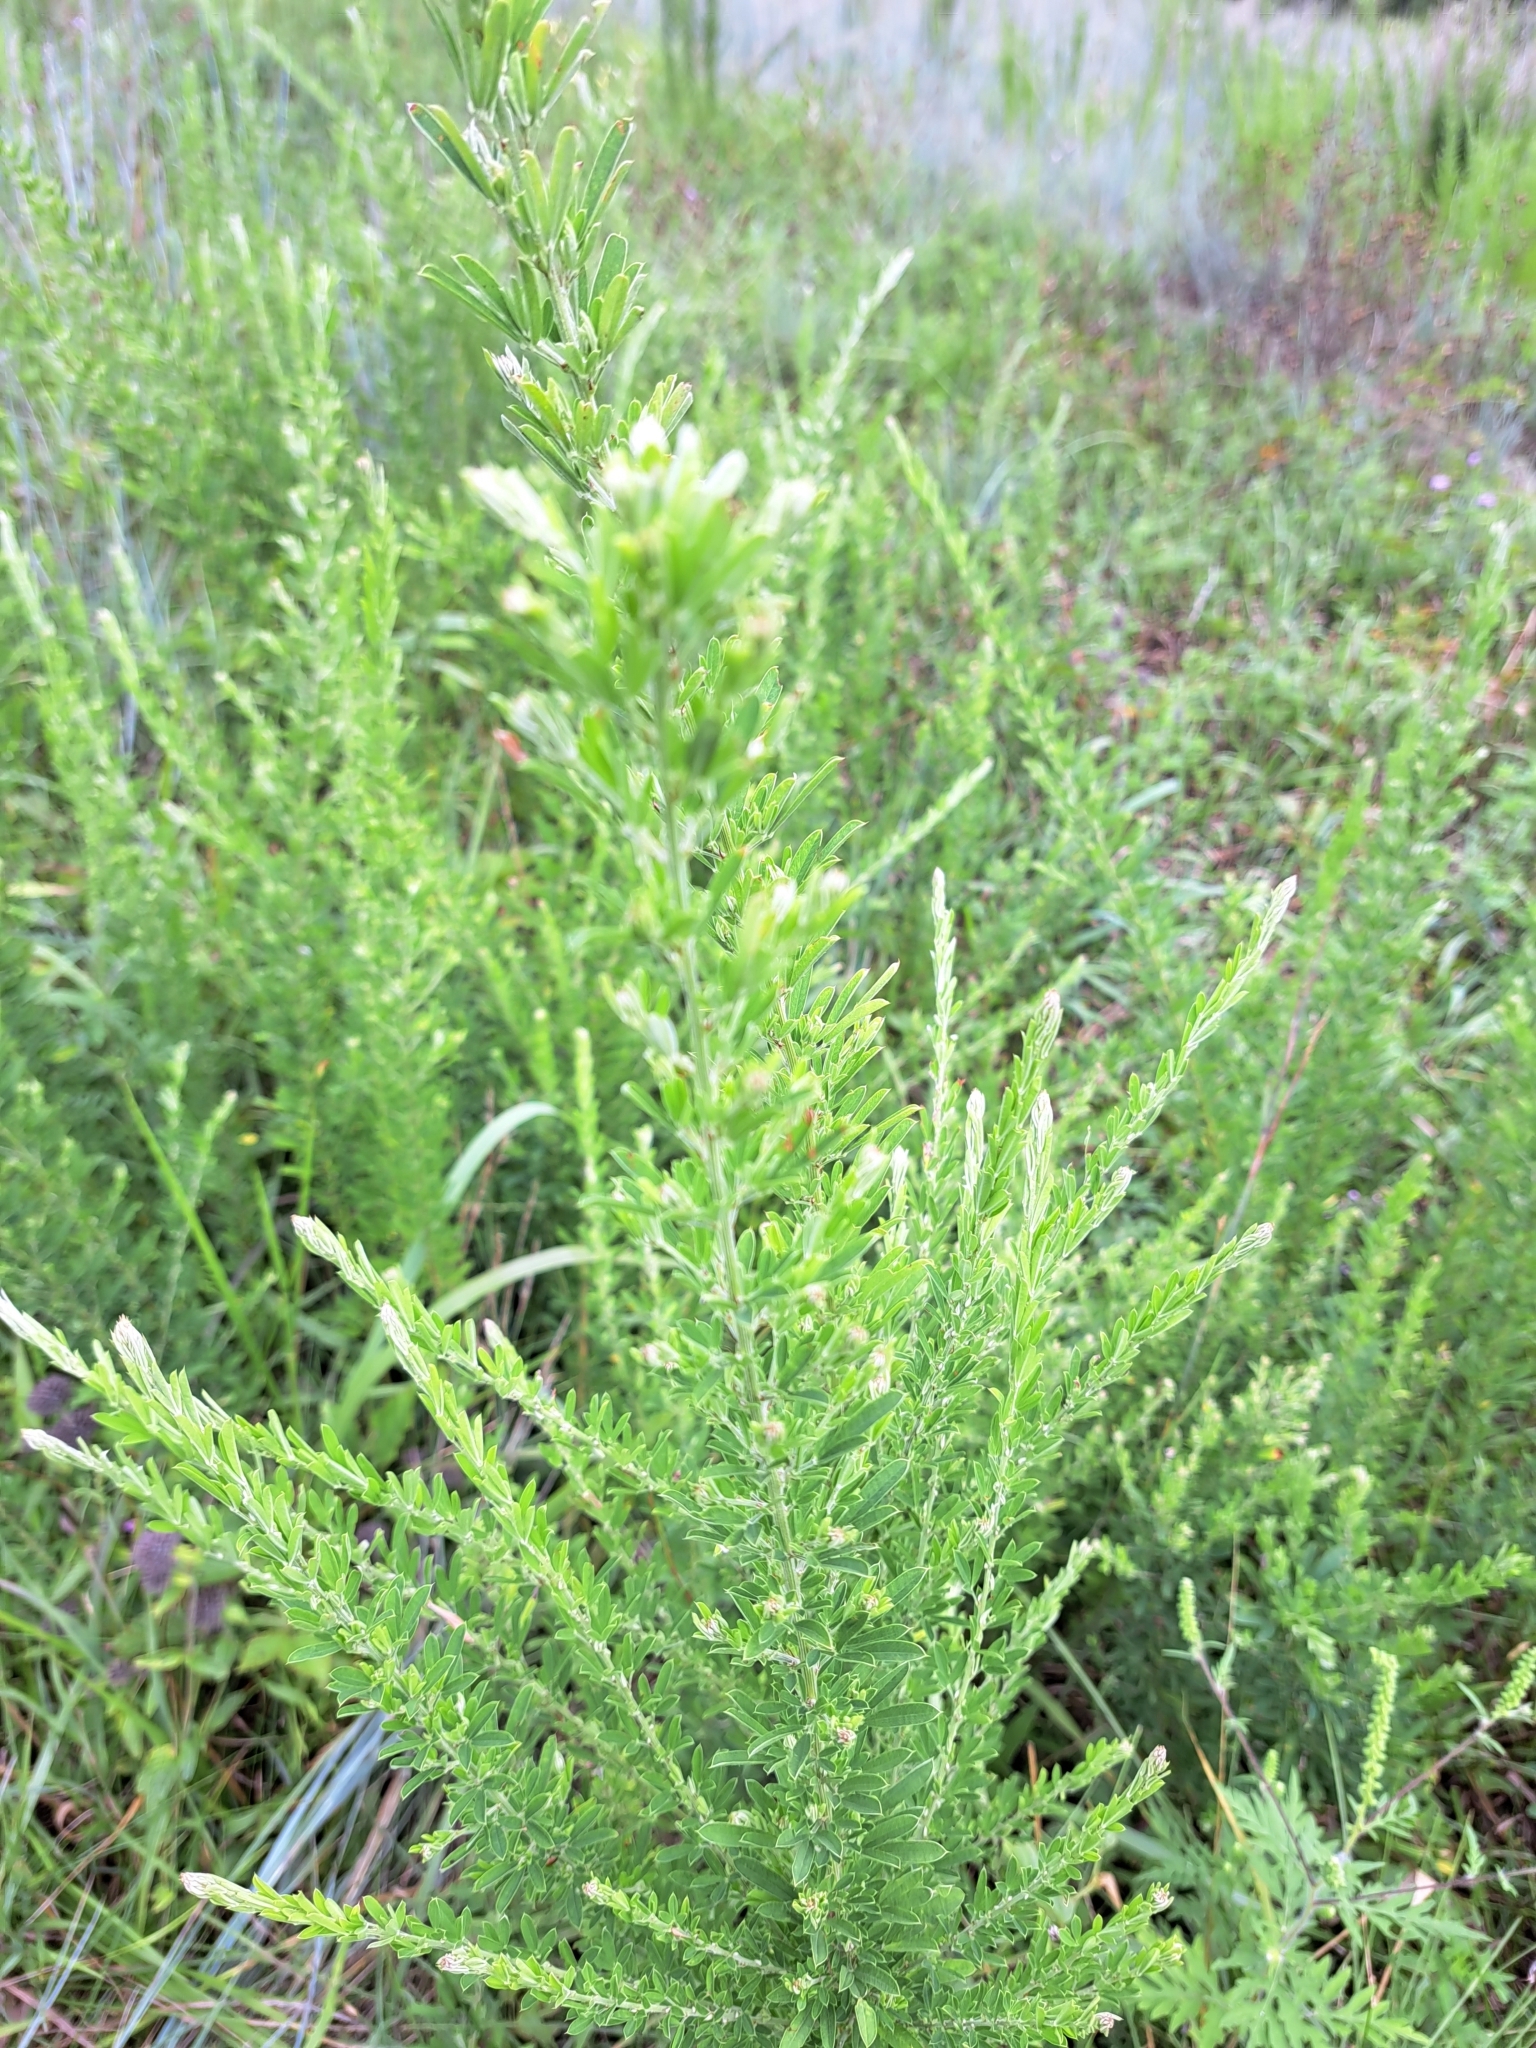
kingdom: Plantae
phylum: Tracheophyta
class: Magnoliopsida
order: Fabales
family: Fabaceae
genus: Lespedeza
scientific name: Lespedeza cuneata
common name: Chinese bush-clover
